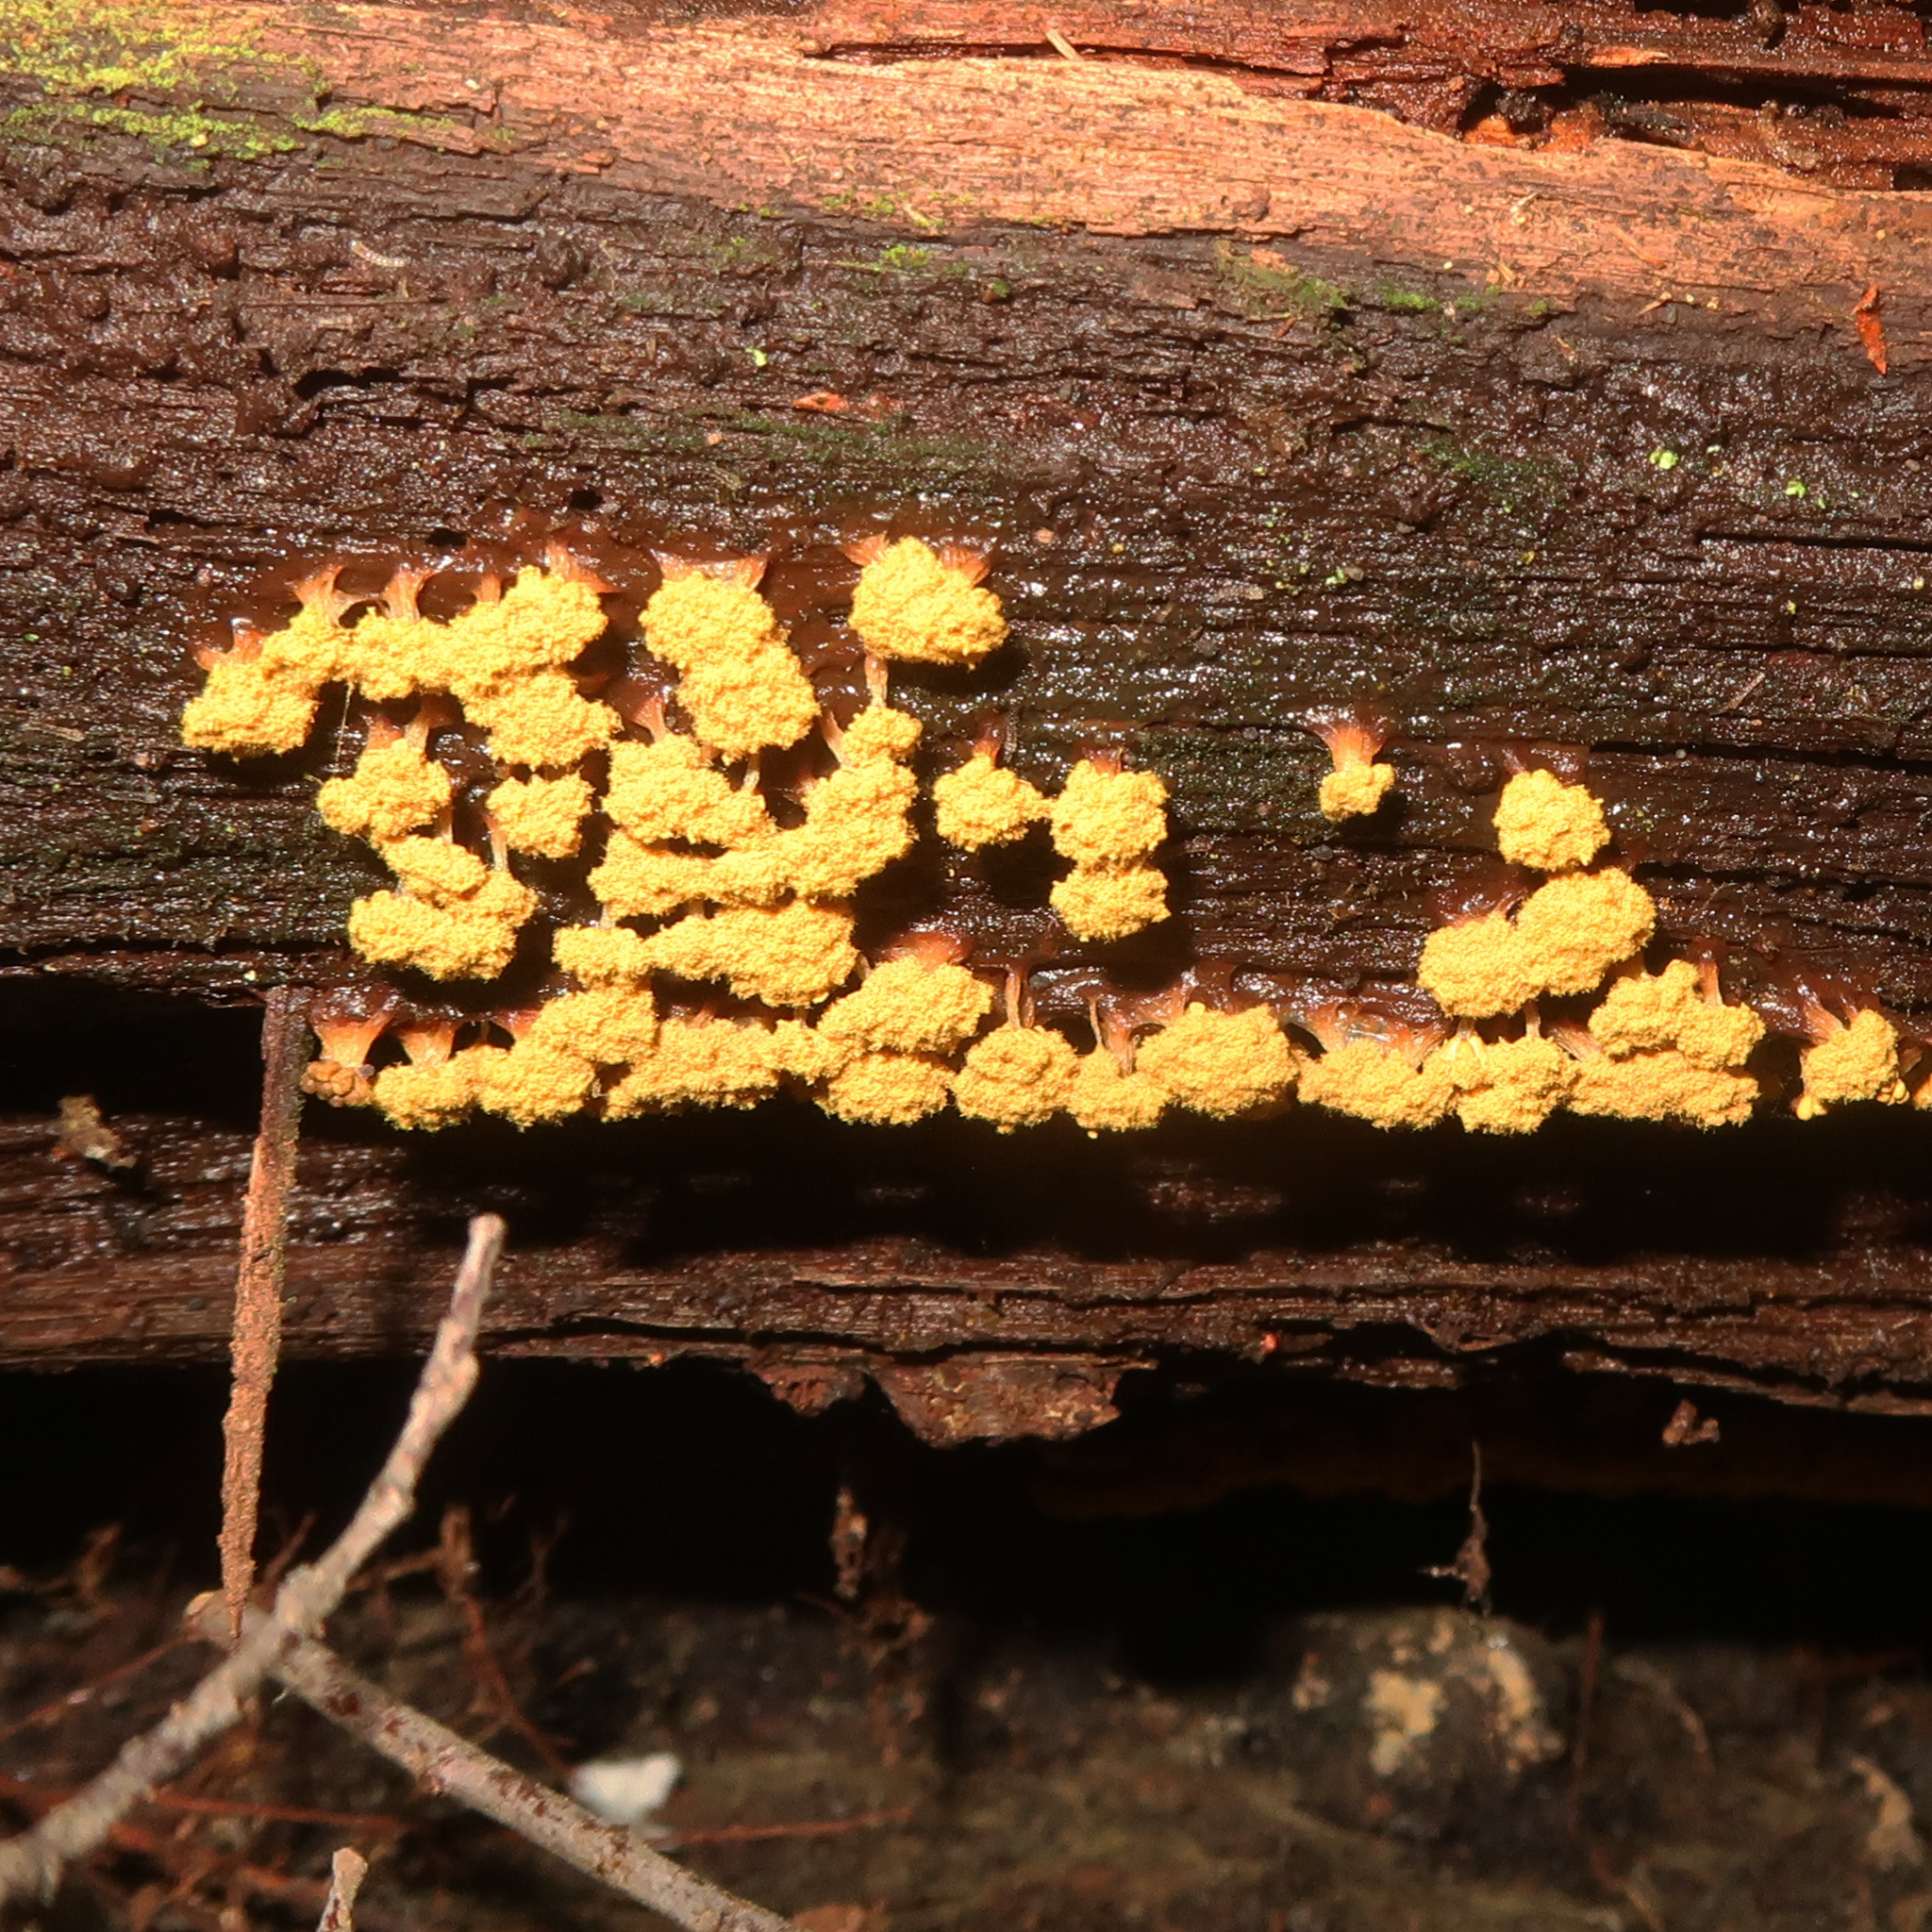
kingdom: Protozoa
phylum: Mycetozoa
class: Myxomycetes
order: Trichiales
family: Trichiaceae
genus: Oligonema
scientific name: Oligonema verrucosum
